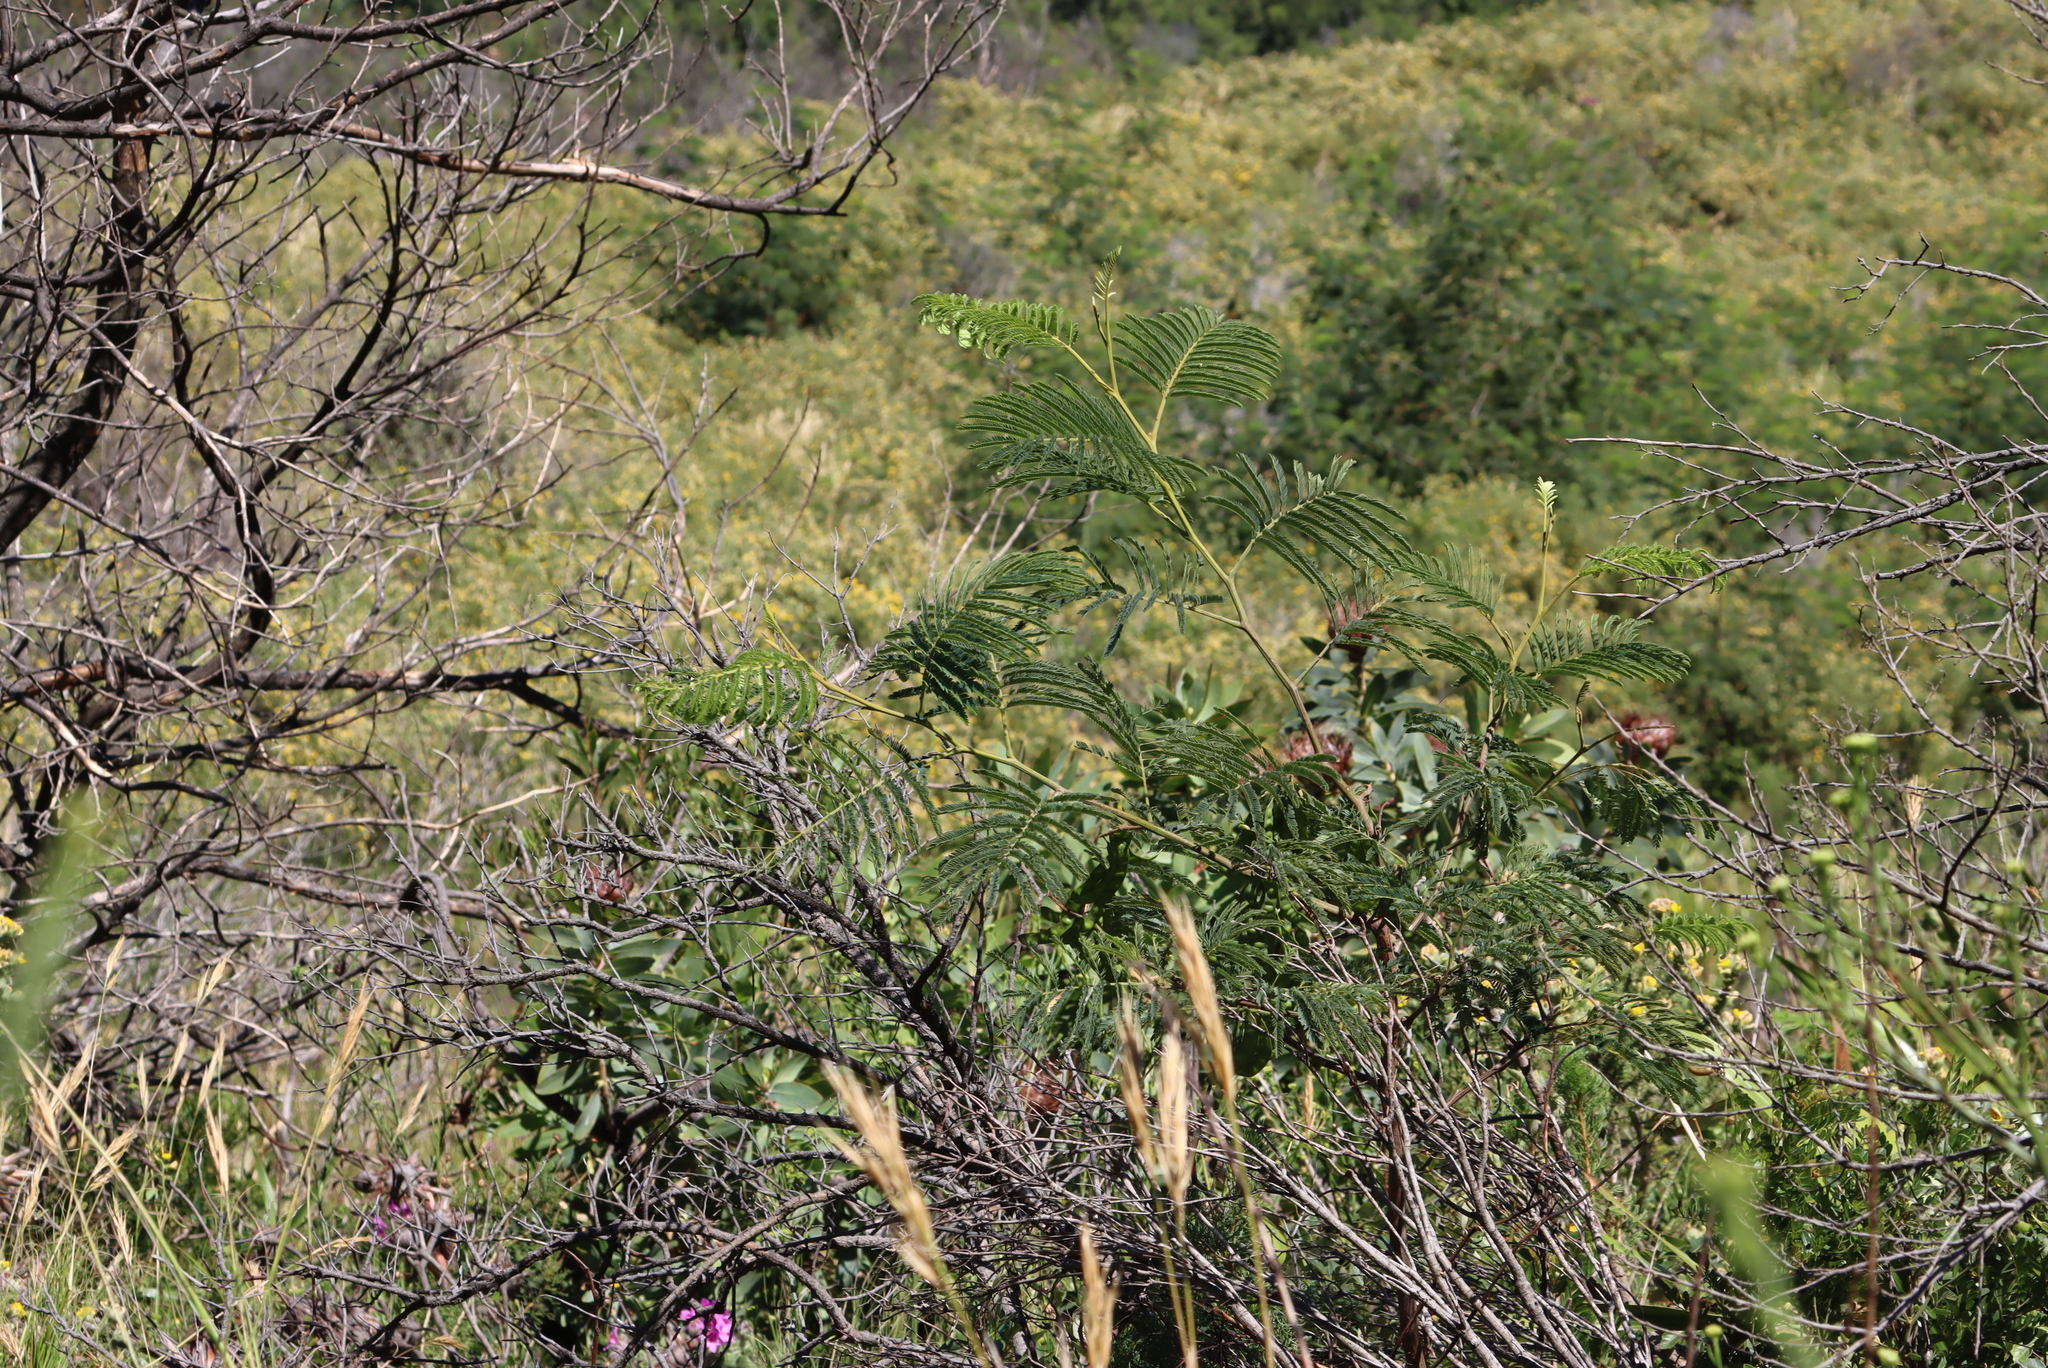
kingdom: Plantae
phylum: Tracheophyta
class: Magnoliopsida
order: Fabales
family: Fabaceae
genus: Acacia
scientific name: Acacia mearnsii
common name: Black wattle
